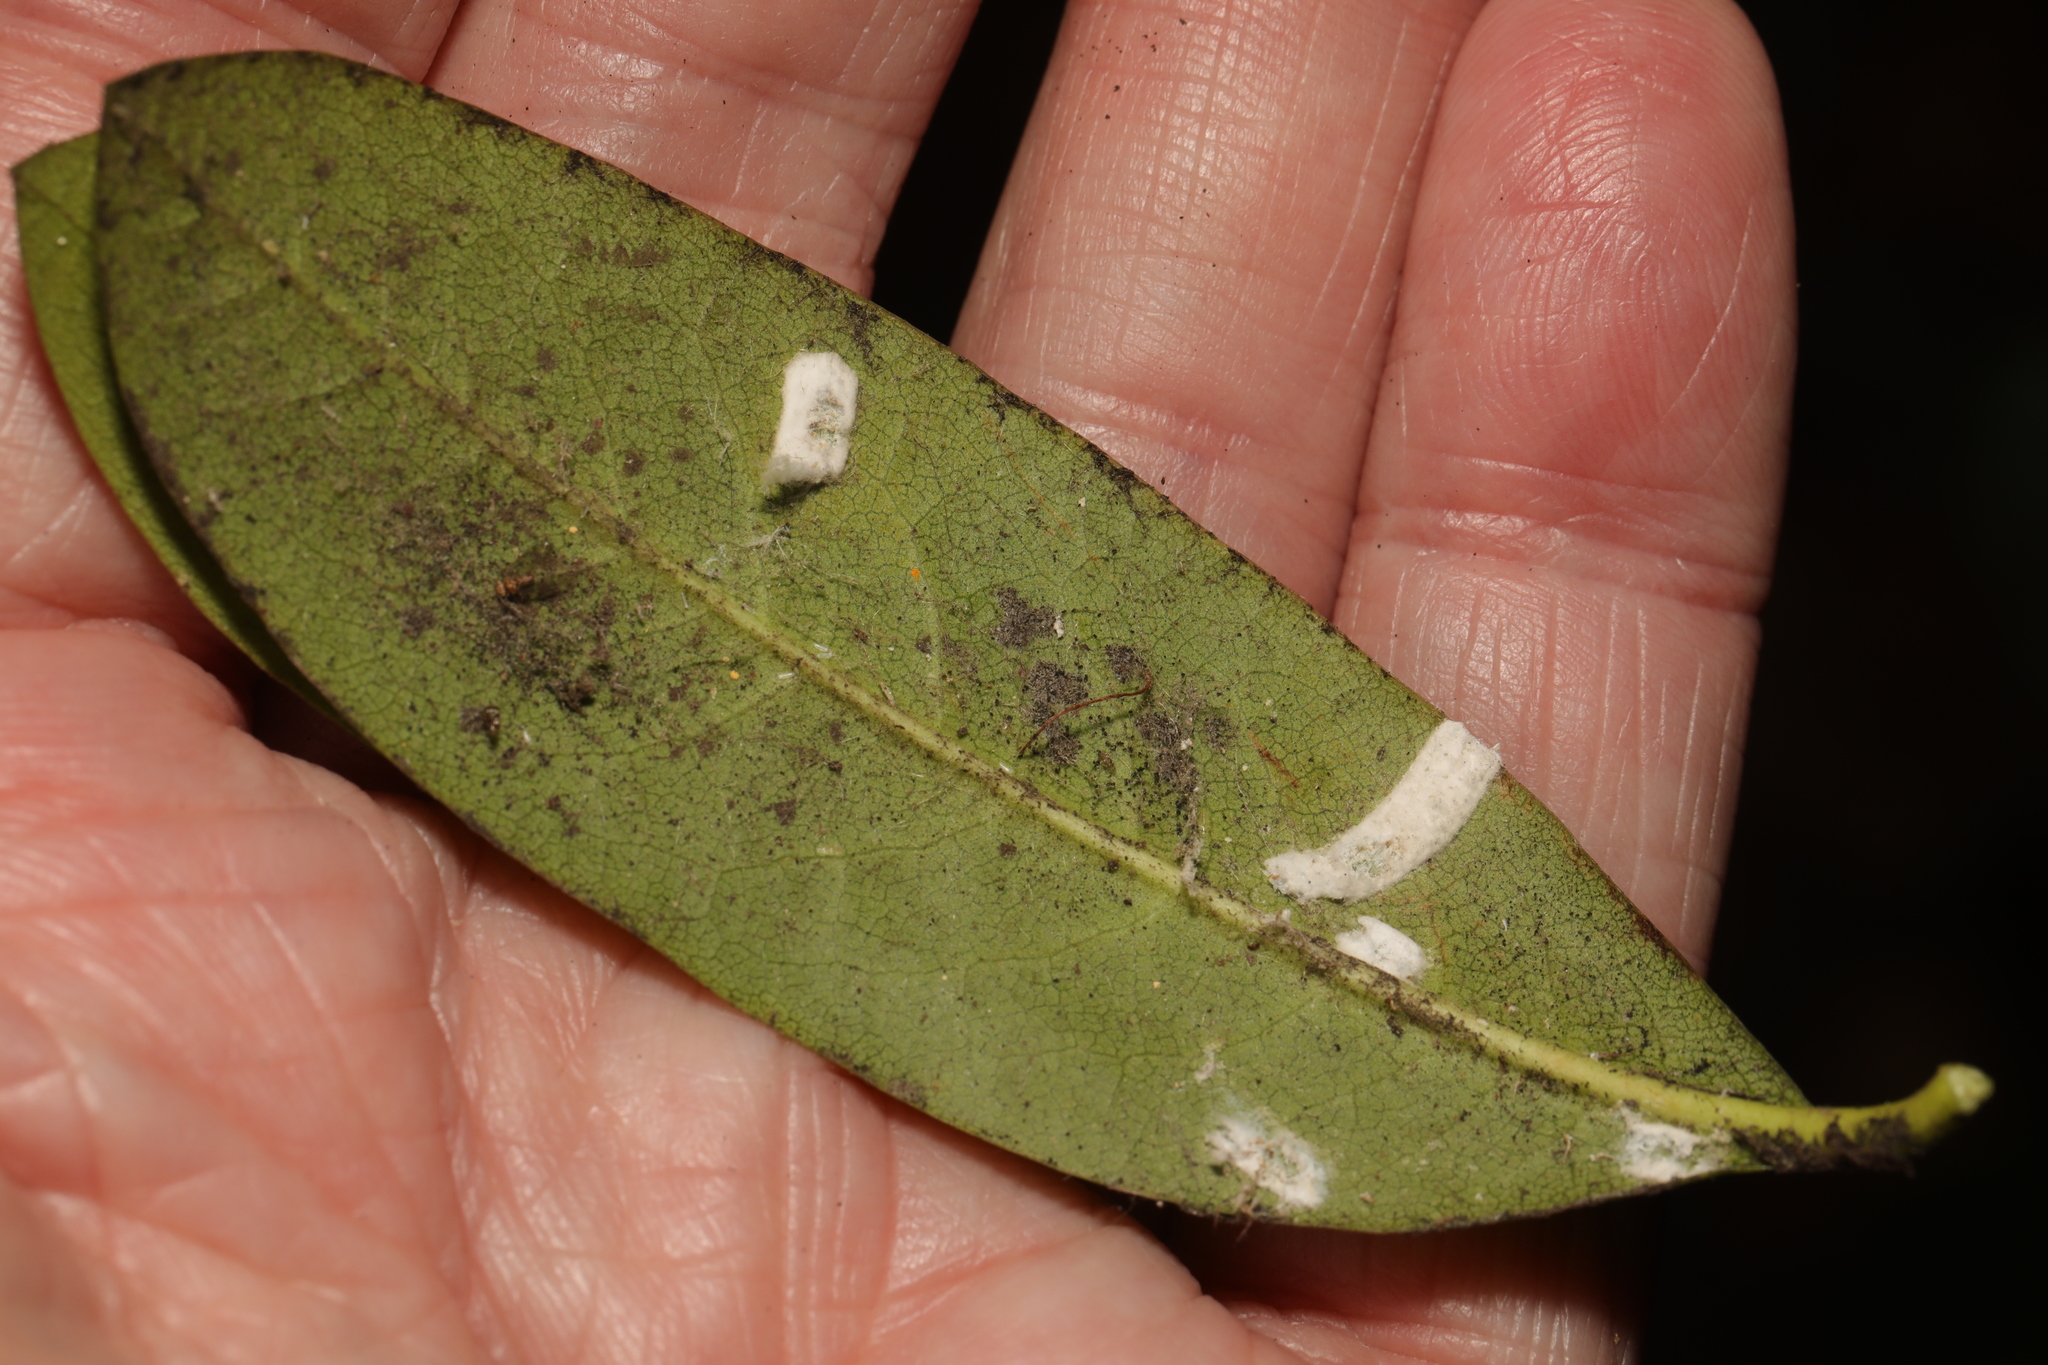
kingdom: Animalia
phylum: Arthropoda
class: Insecta
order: Hemiptera
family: Coccidae
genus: Pulvinaria
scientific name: Pulvinaria floccifera
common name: Cottony camellia scale
